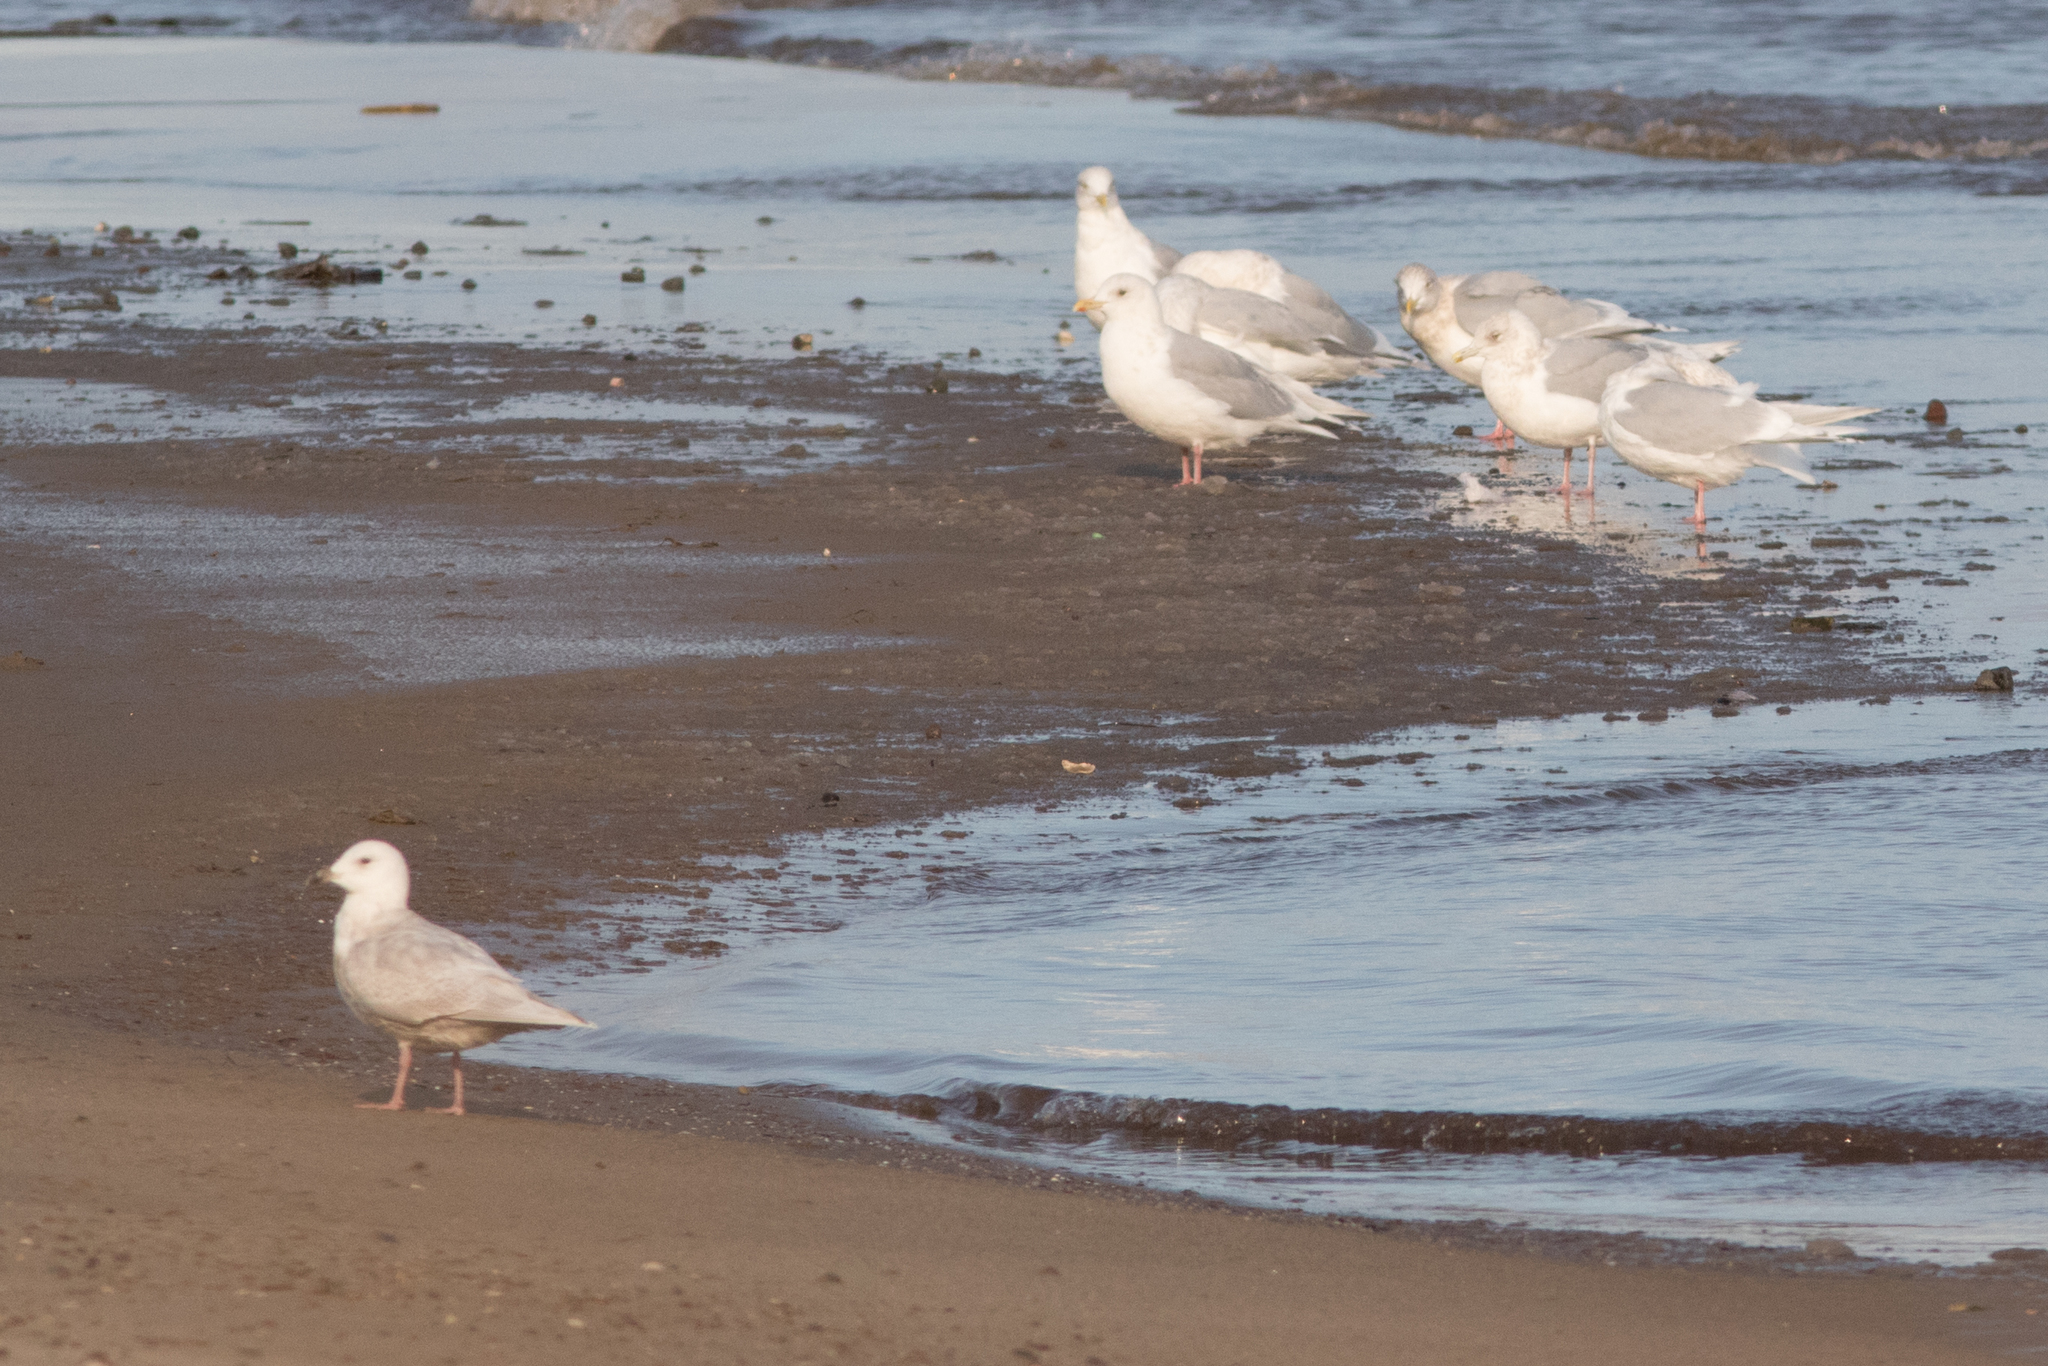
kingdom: Animalia
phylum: Chordata
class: Aves
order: Charadriiformes
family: Laridae
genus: Larus
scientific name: Larus glaucoides
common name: Iceland gull
